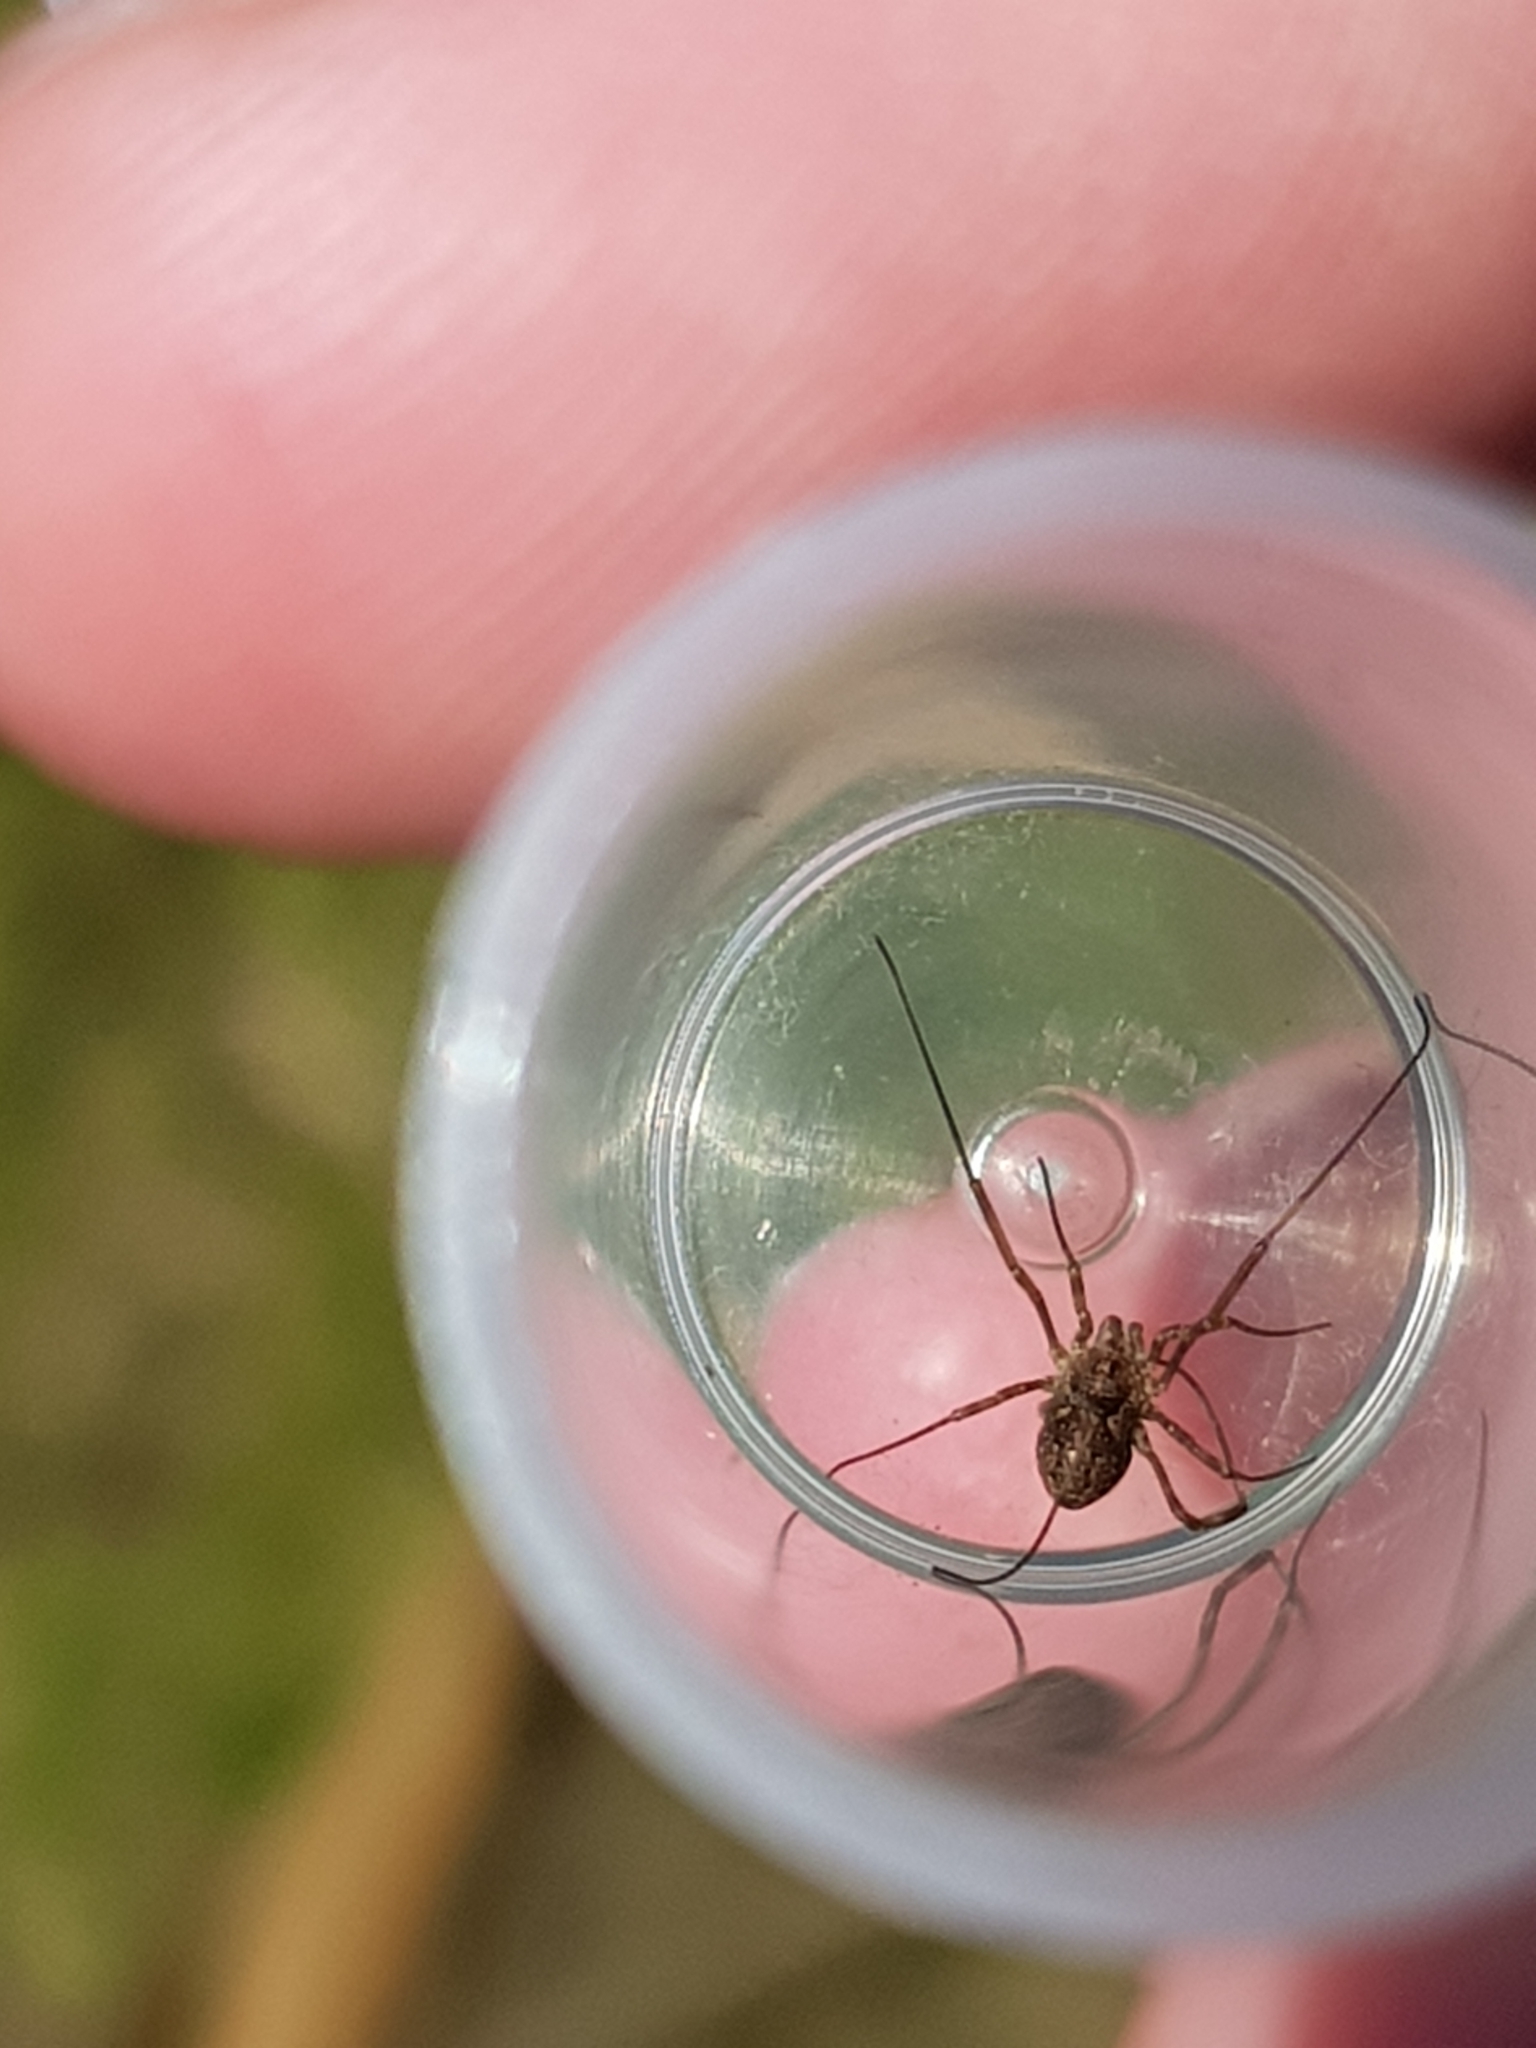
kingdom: Animalia
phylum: Arthropoda
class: Arachnida
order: Opiliones
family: Phalangiidae
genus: Mitopus
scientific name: Mitopus morio
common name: Saddleback harvestman
